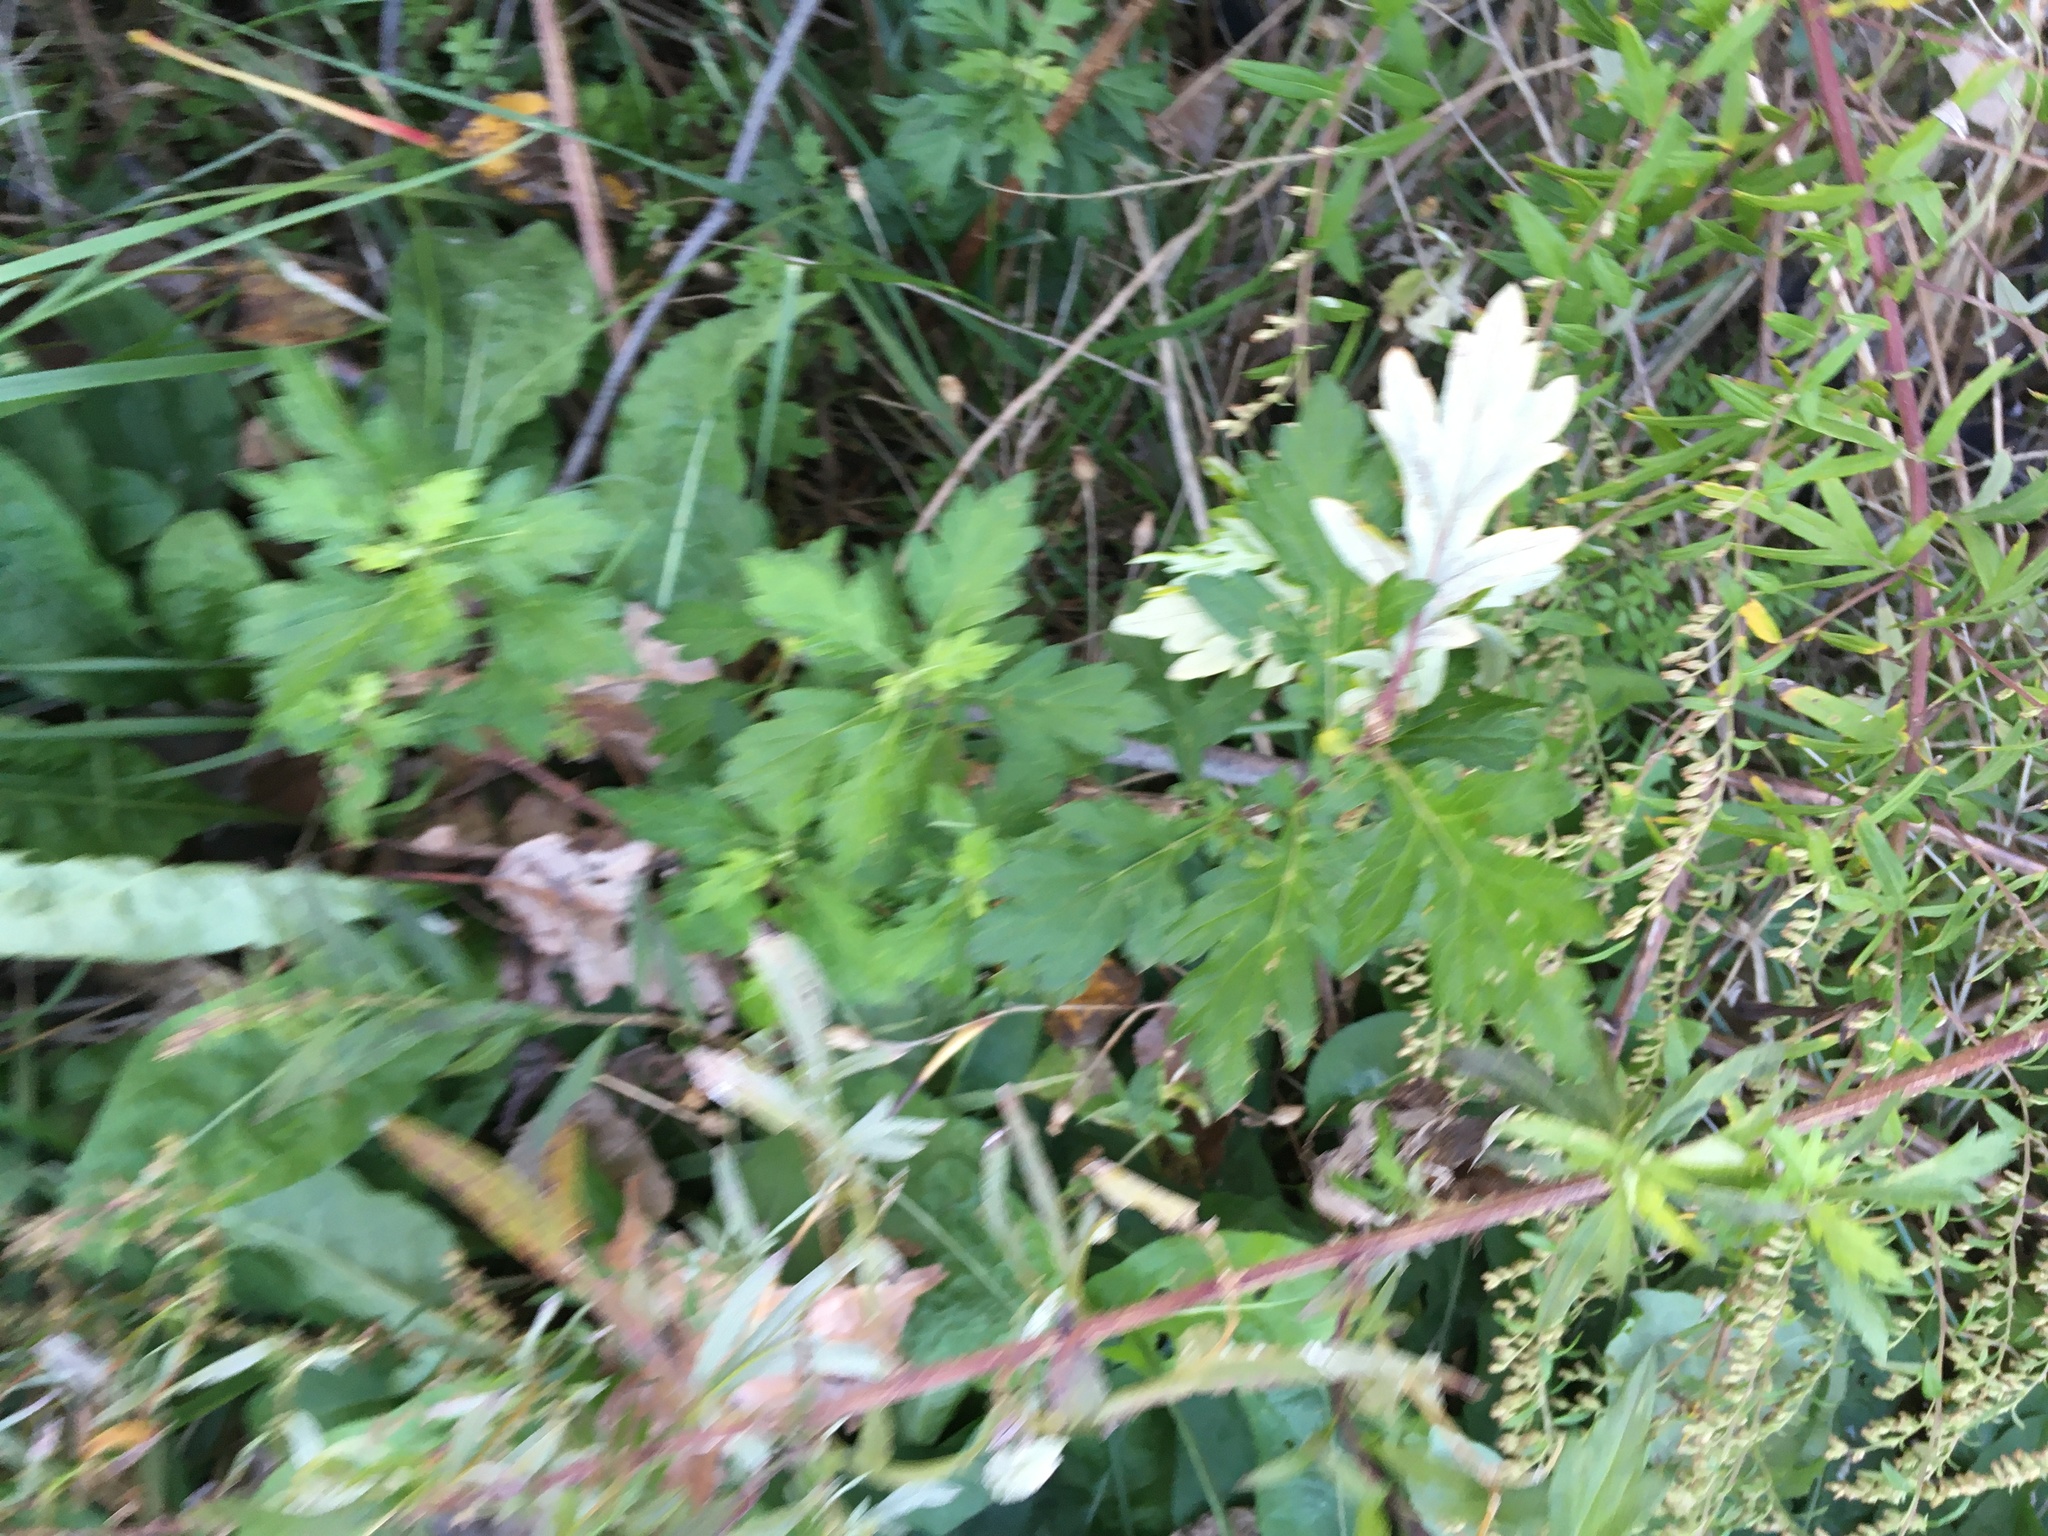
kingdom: Plantae
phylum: Tracheophyta
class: Magnoliopsida
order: Asterales
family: Asteraceae
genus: Artemisia
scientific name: Artemisia vulgaris
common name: Mugwort
